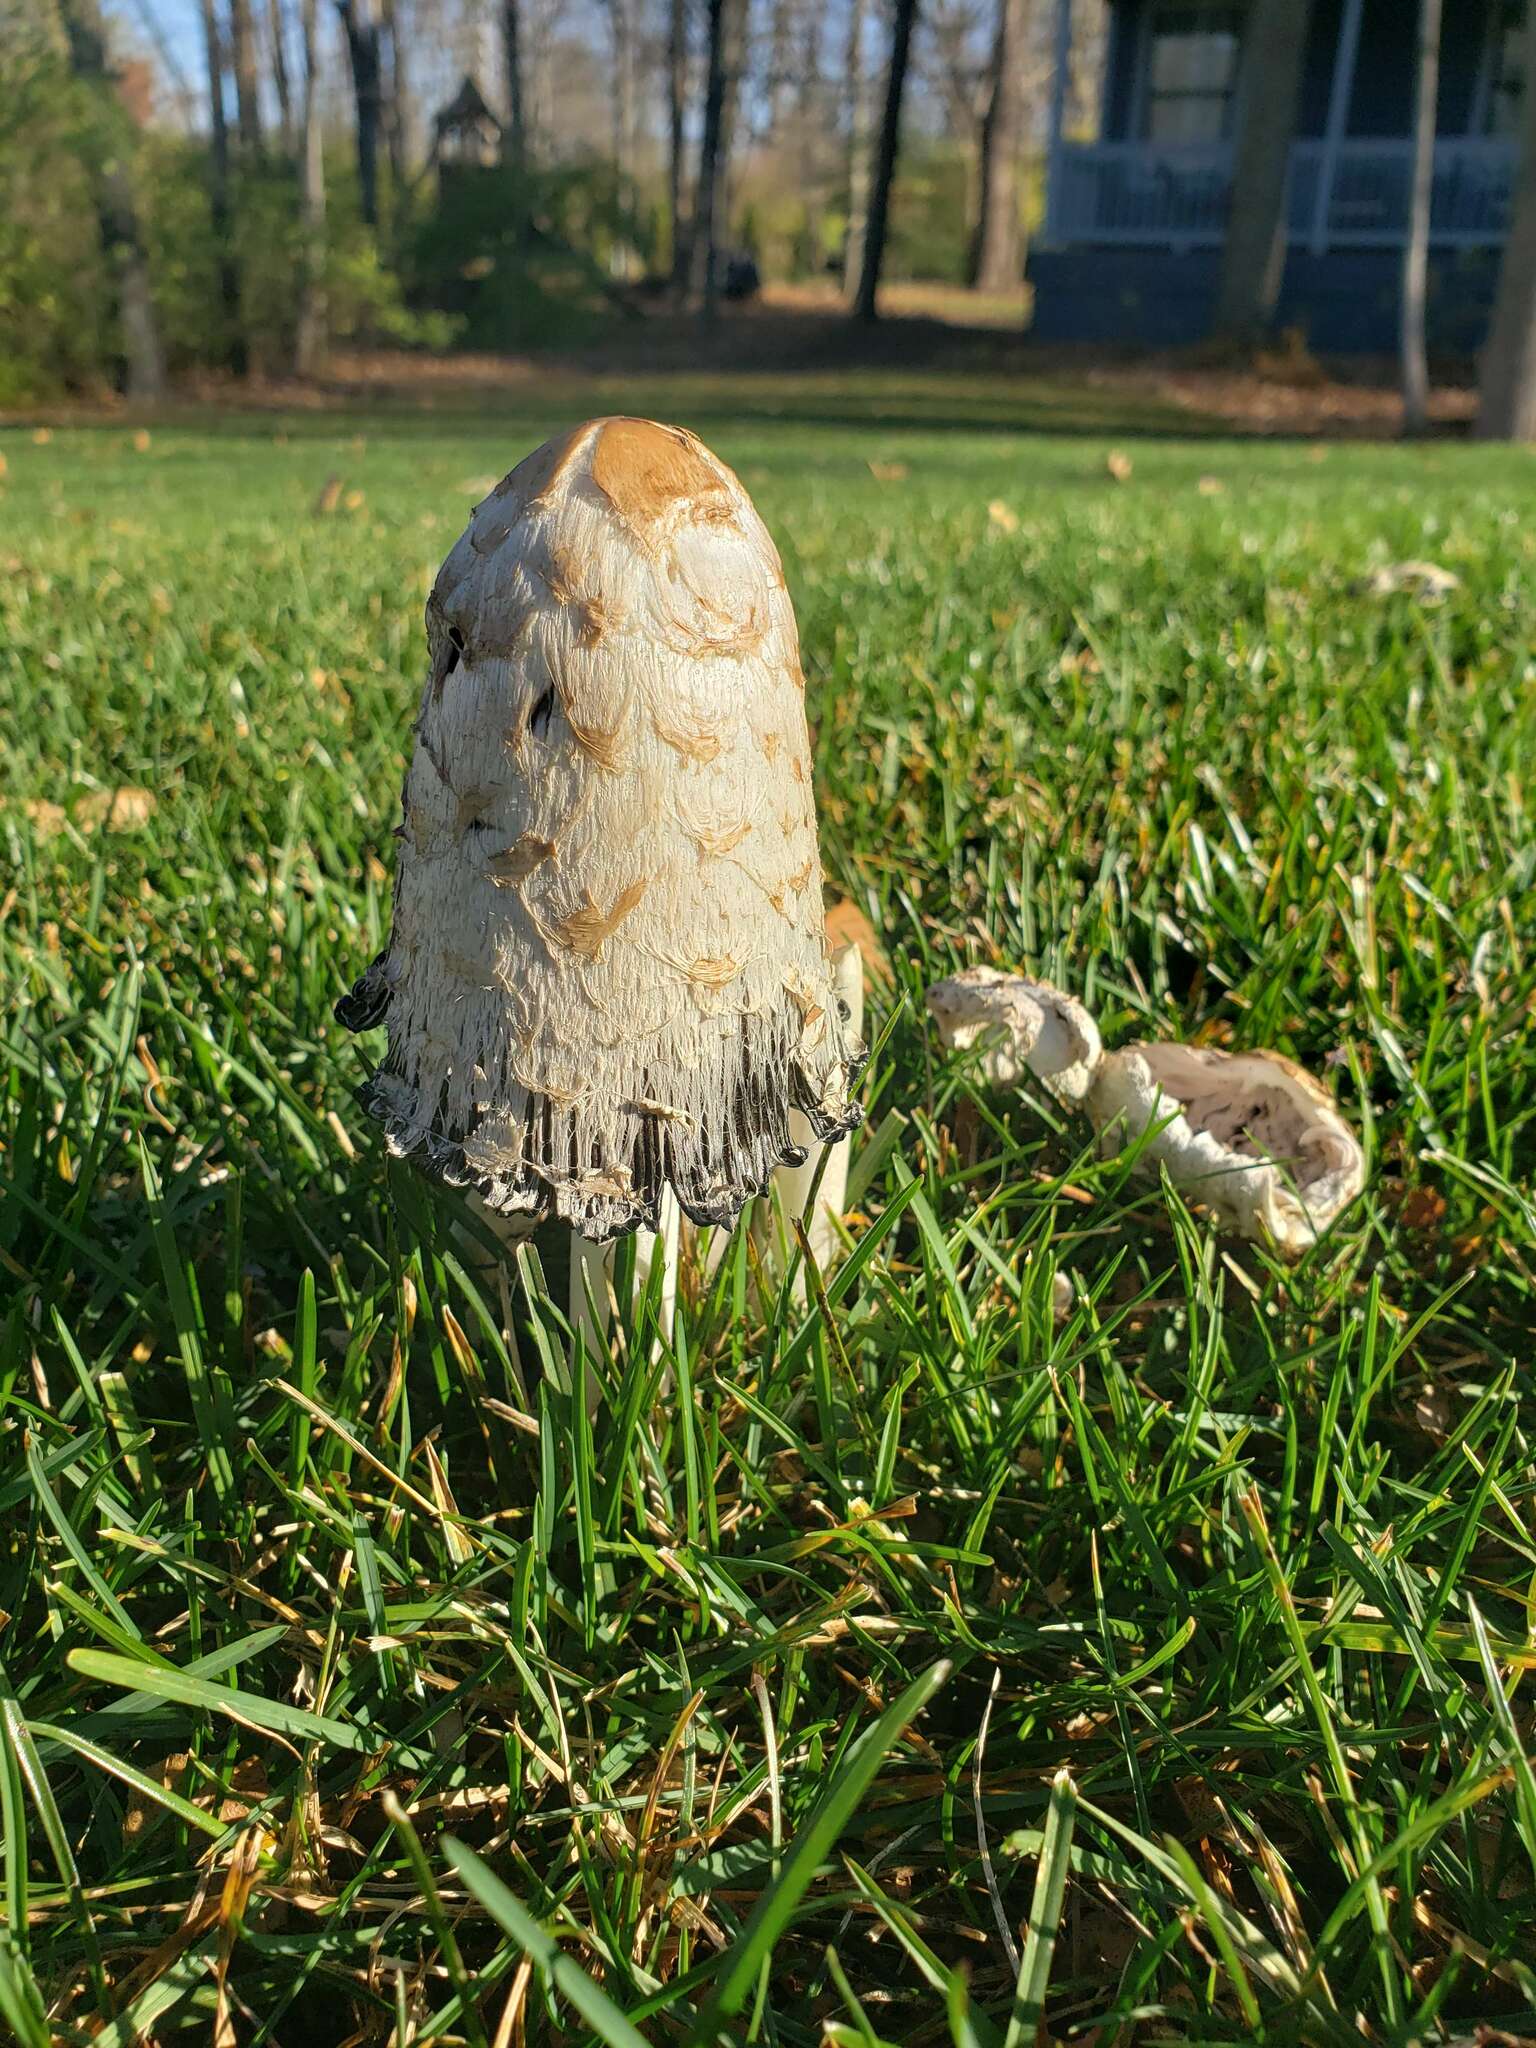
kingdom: Fungi
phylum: Basidiomycota
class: Agaricomycetes
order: Agaricales
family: Agaricaceae
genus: Coprinus
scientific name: Coprinus comatus
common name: Lawyer's wig
